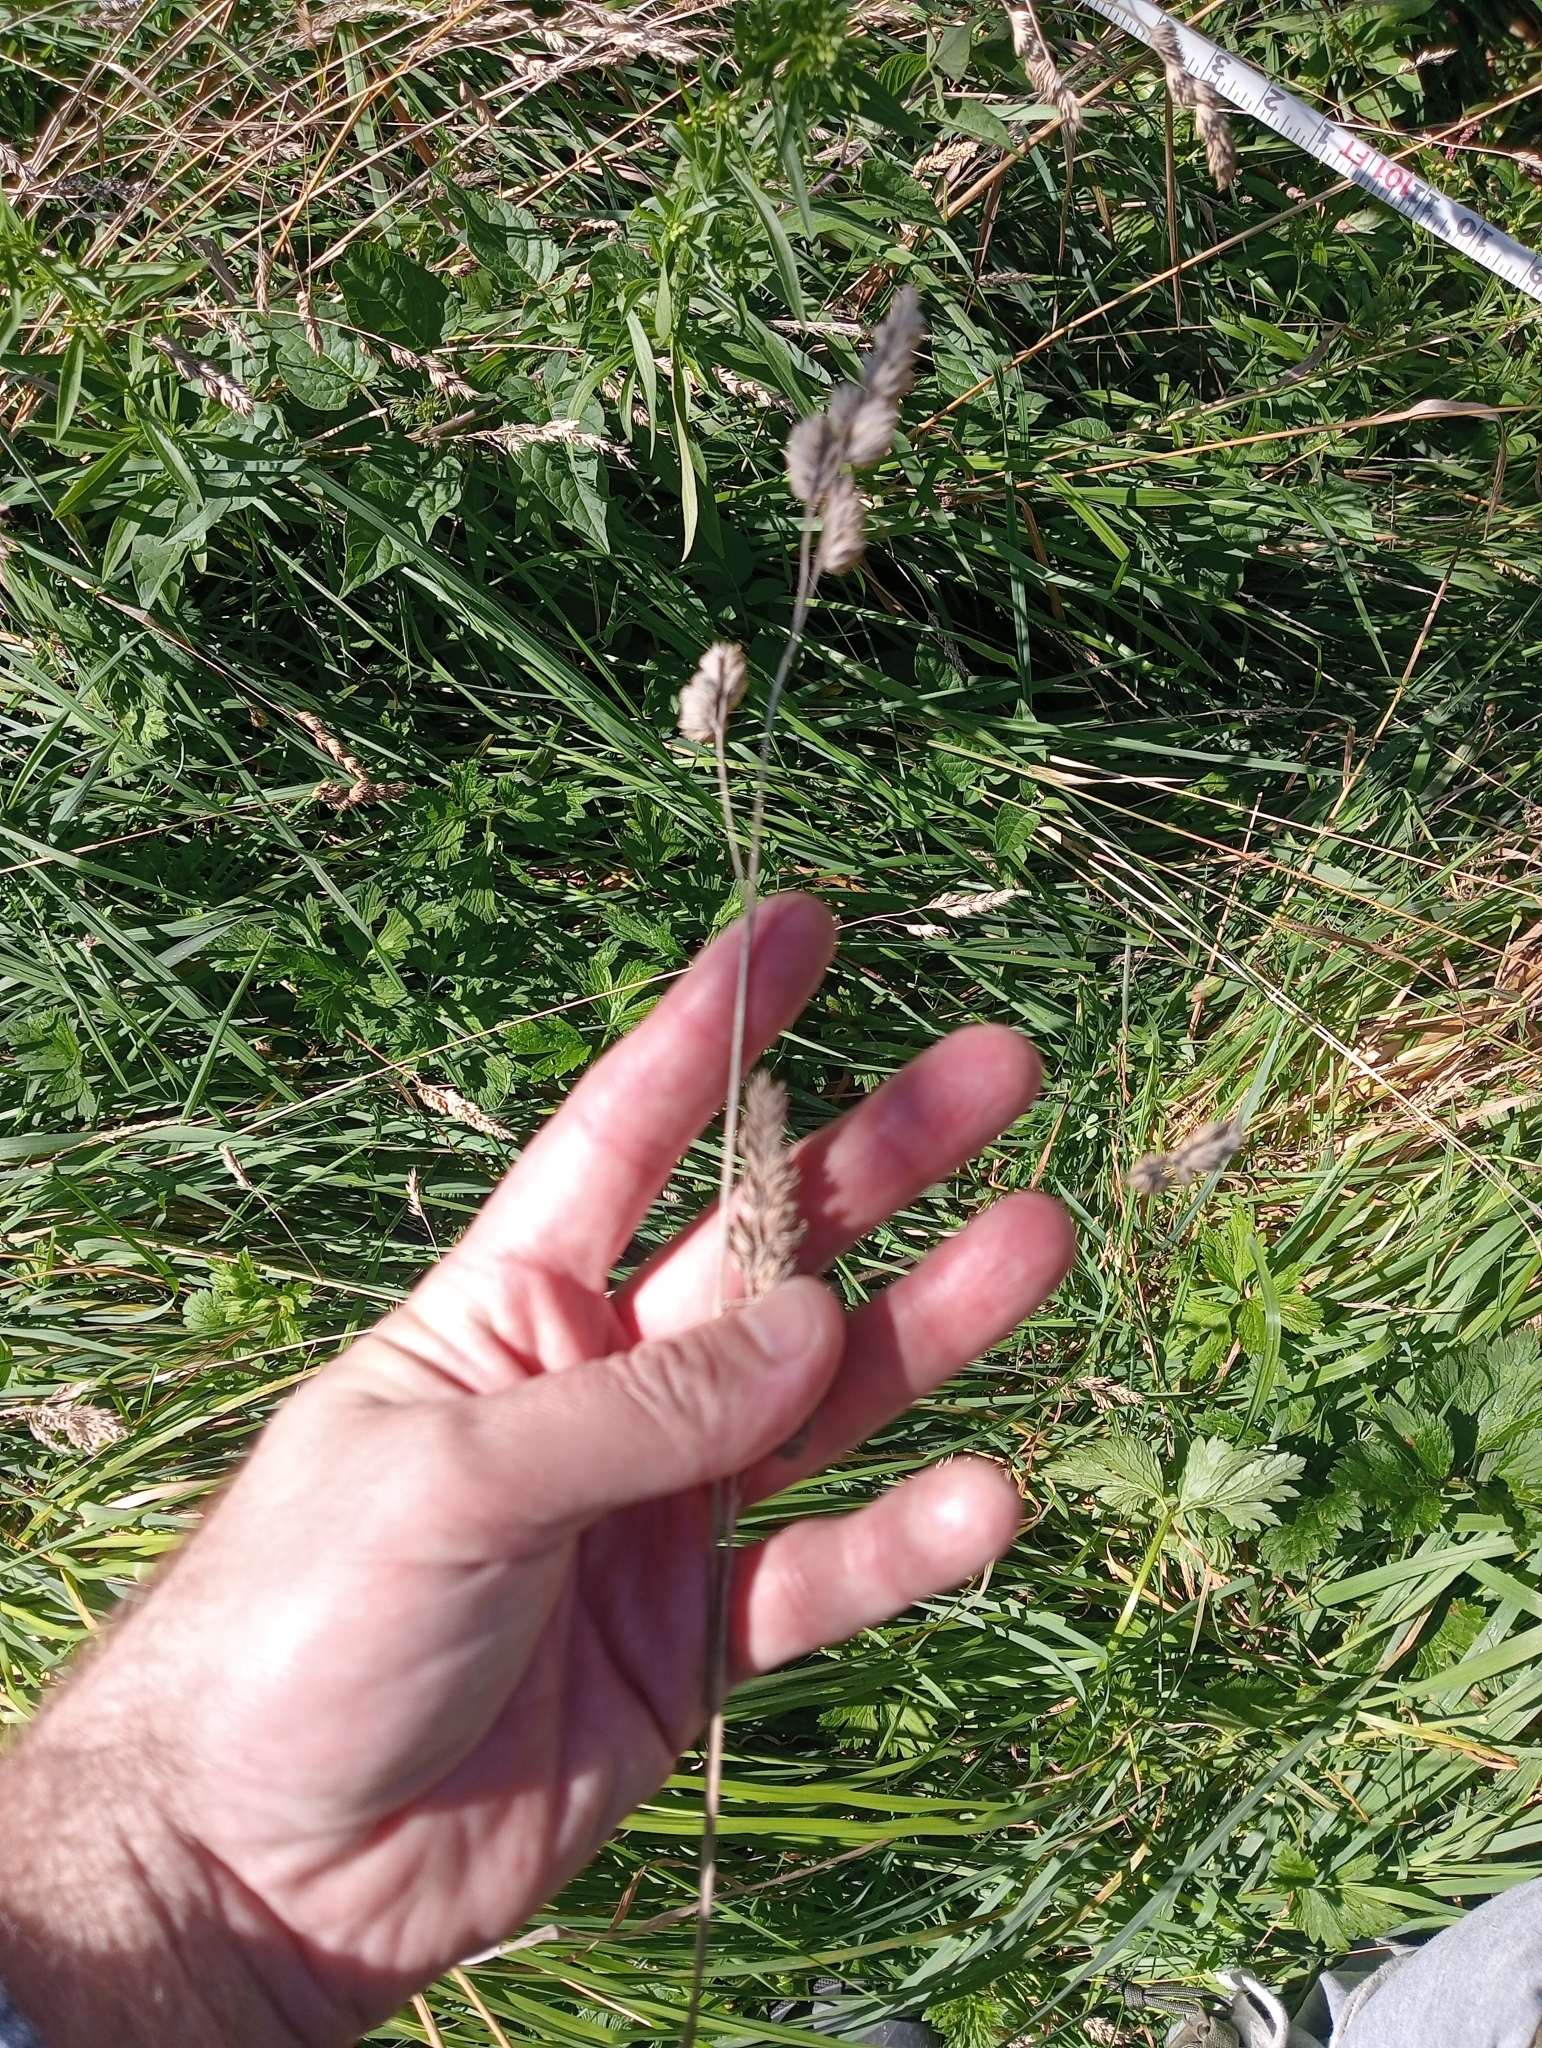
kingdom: Plantae
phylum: Tracheophyta
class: Liliopsida
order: Poales
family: Poaceae
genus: Dactylis
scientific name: Dactylis glomerata
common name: Orchardgrass
